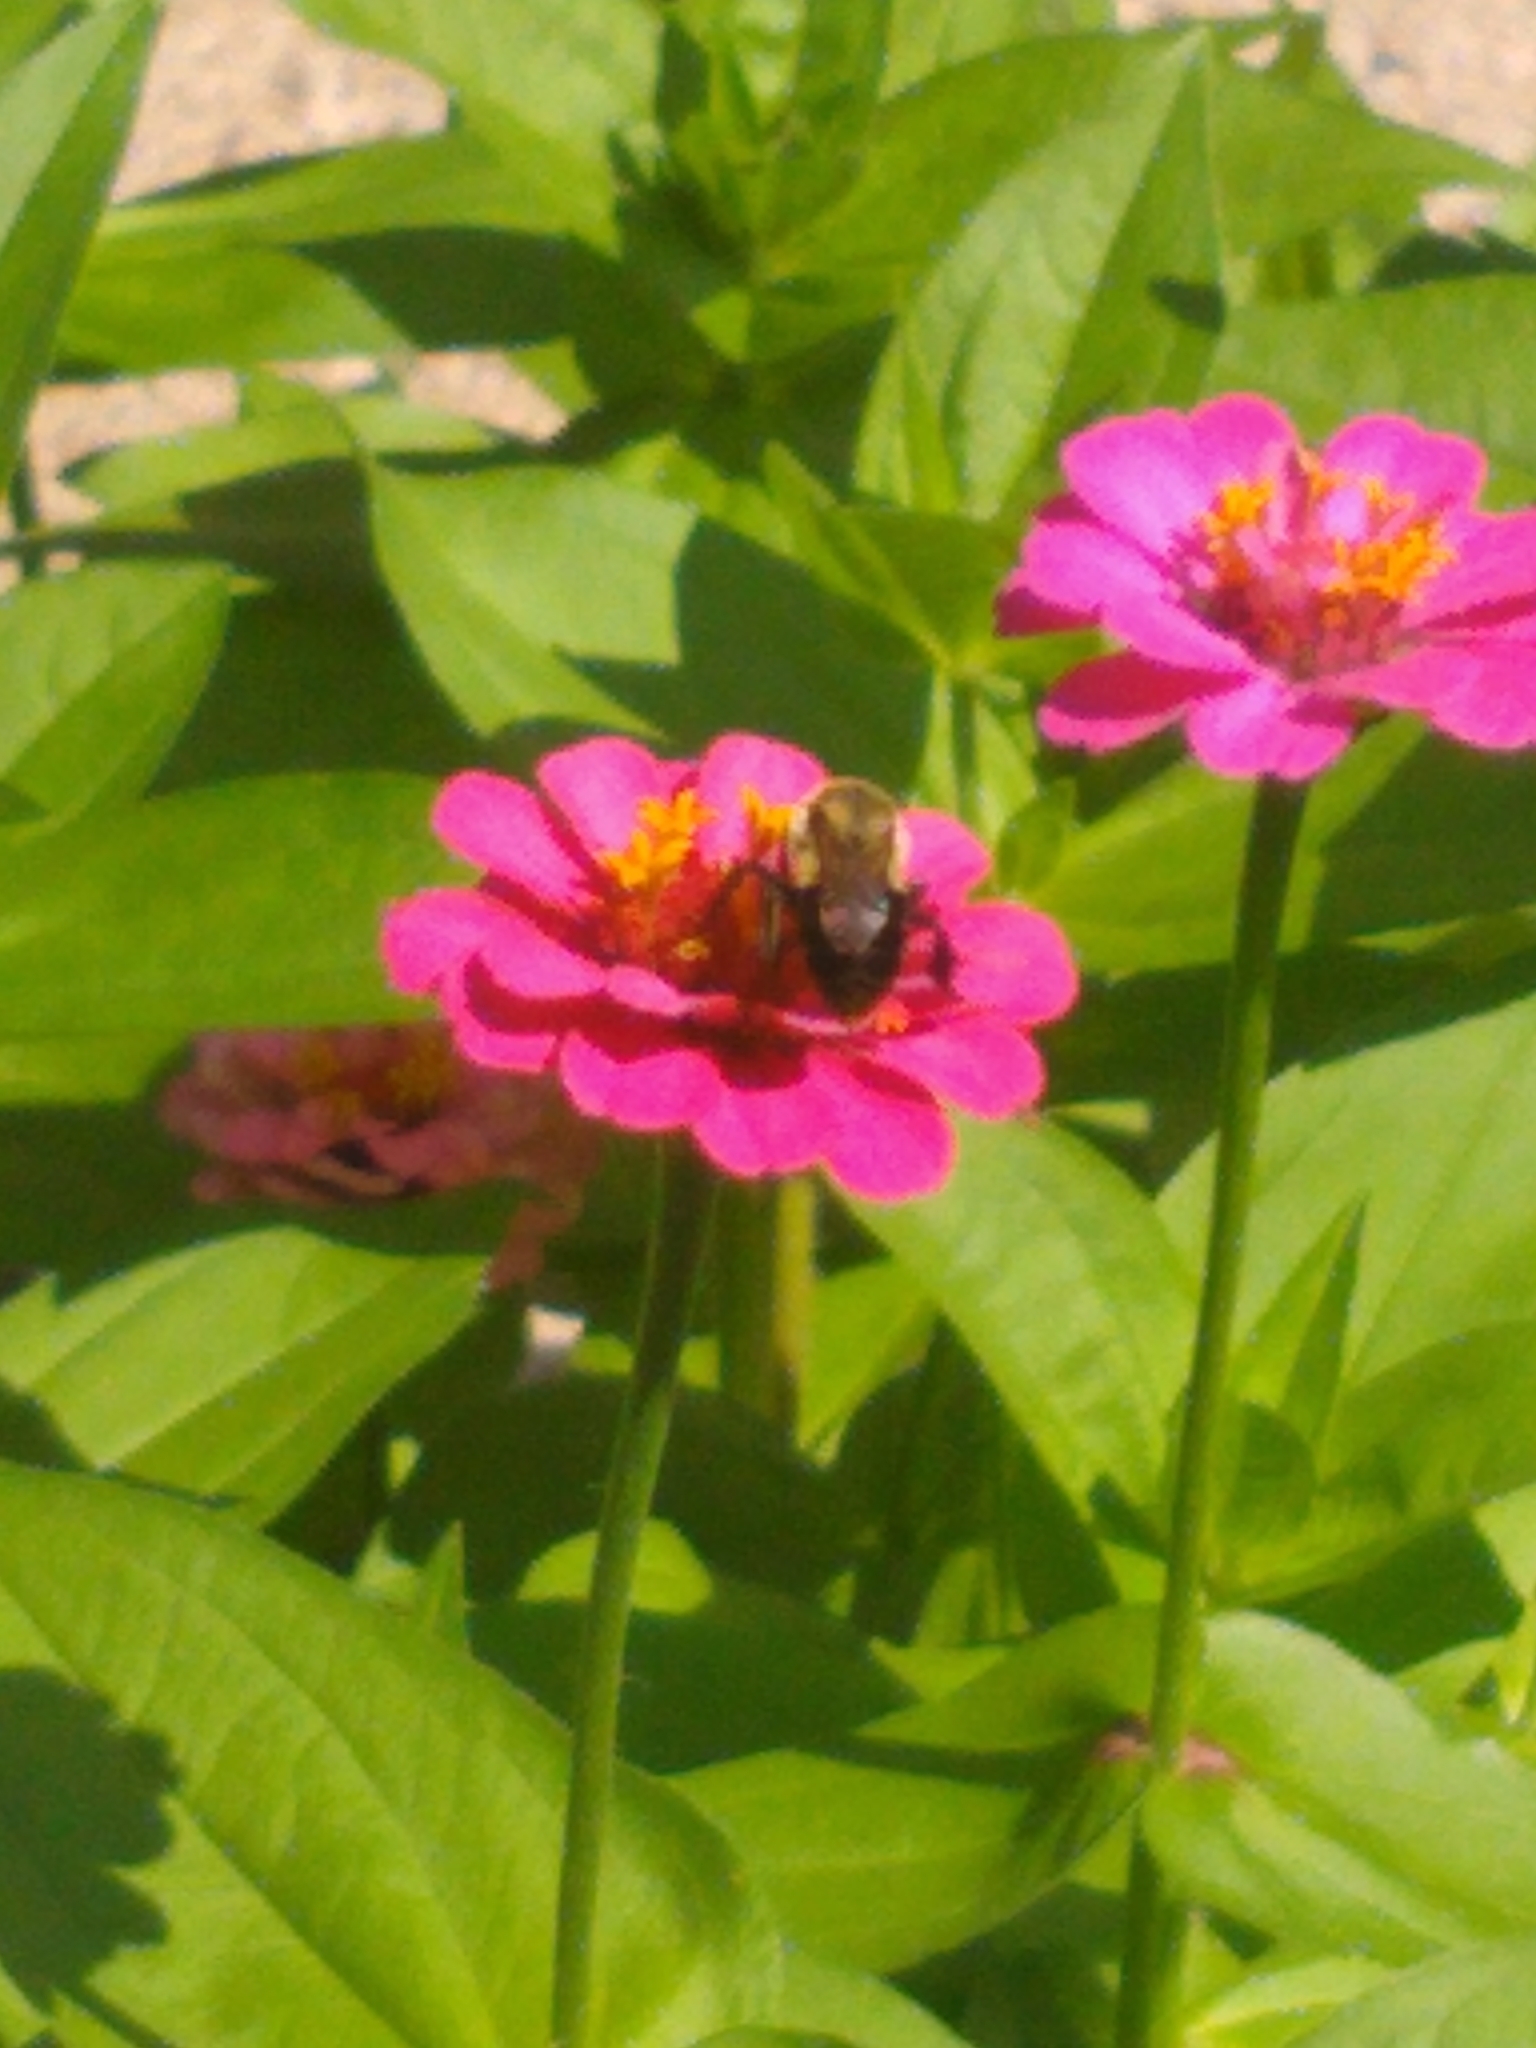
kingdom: Animalia
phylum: Arthropoda
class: Insecta
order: Hymenoptera
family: Apidae
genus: Bombus
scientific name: Bombus impatiens
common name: Common eastern bumble bee
